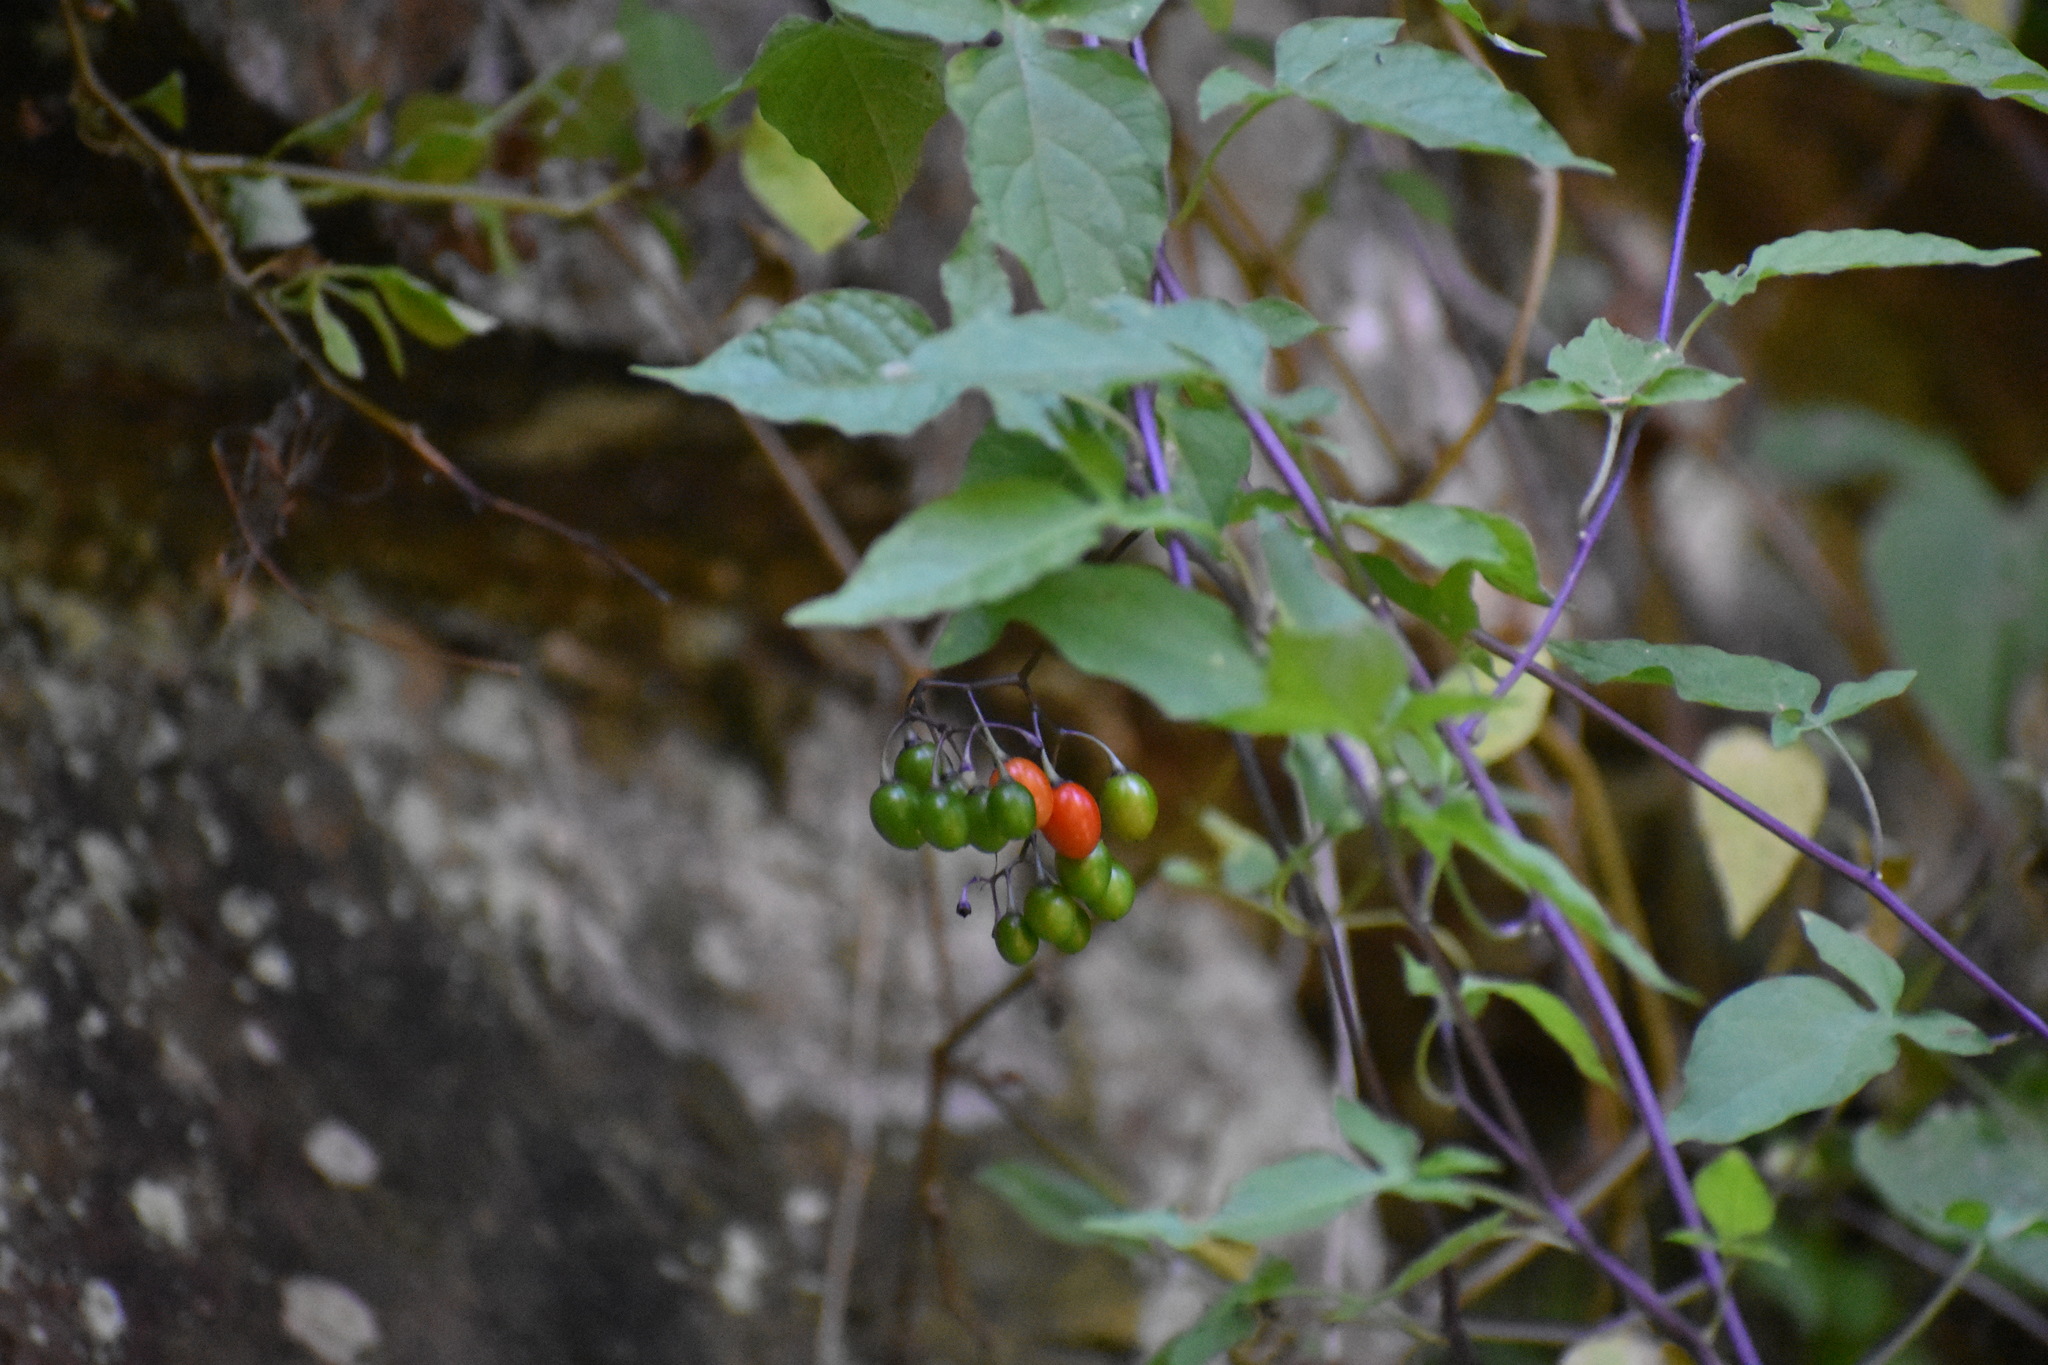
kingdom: Plantae
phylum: Tracheophyta
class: Magnoliopsida
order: Solanales
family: Solanaceae
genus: Solanum
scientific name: Solanum dulcamara
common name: Climbing nightshade
